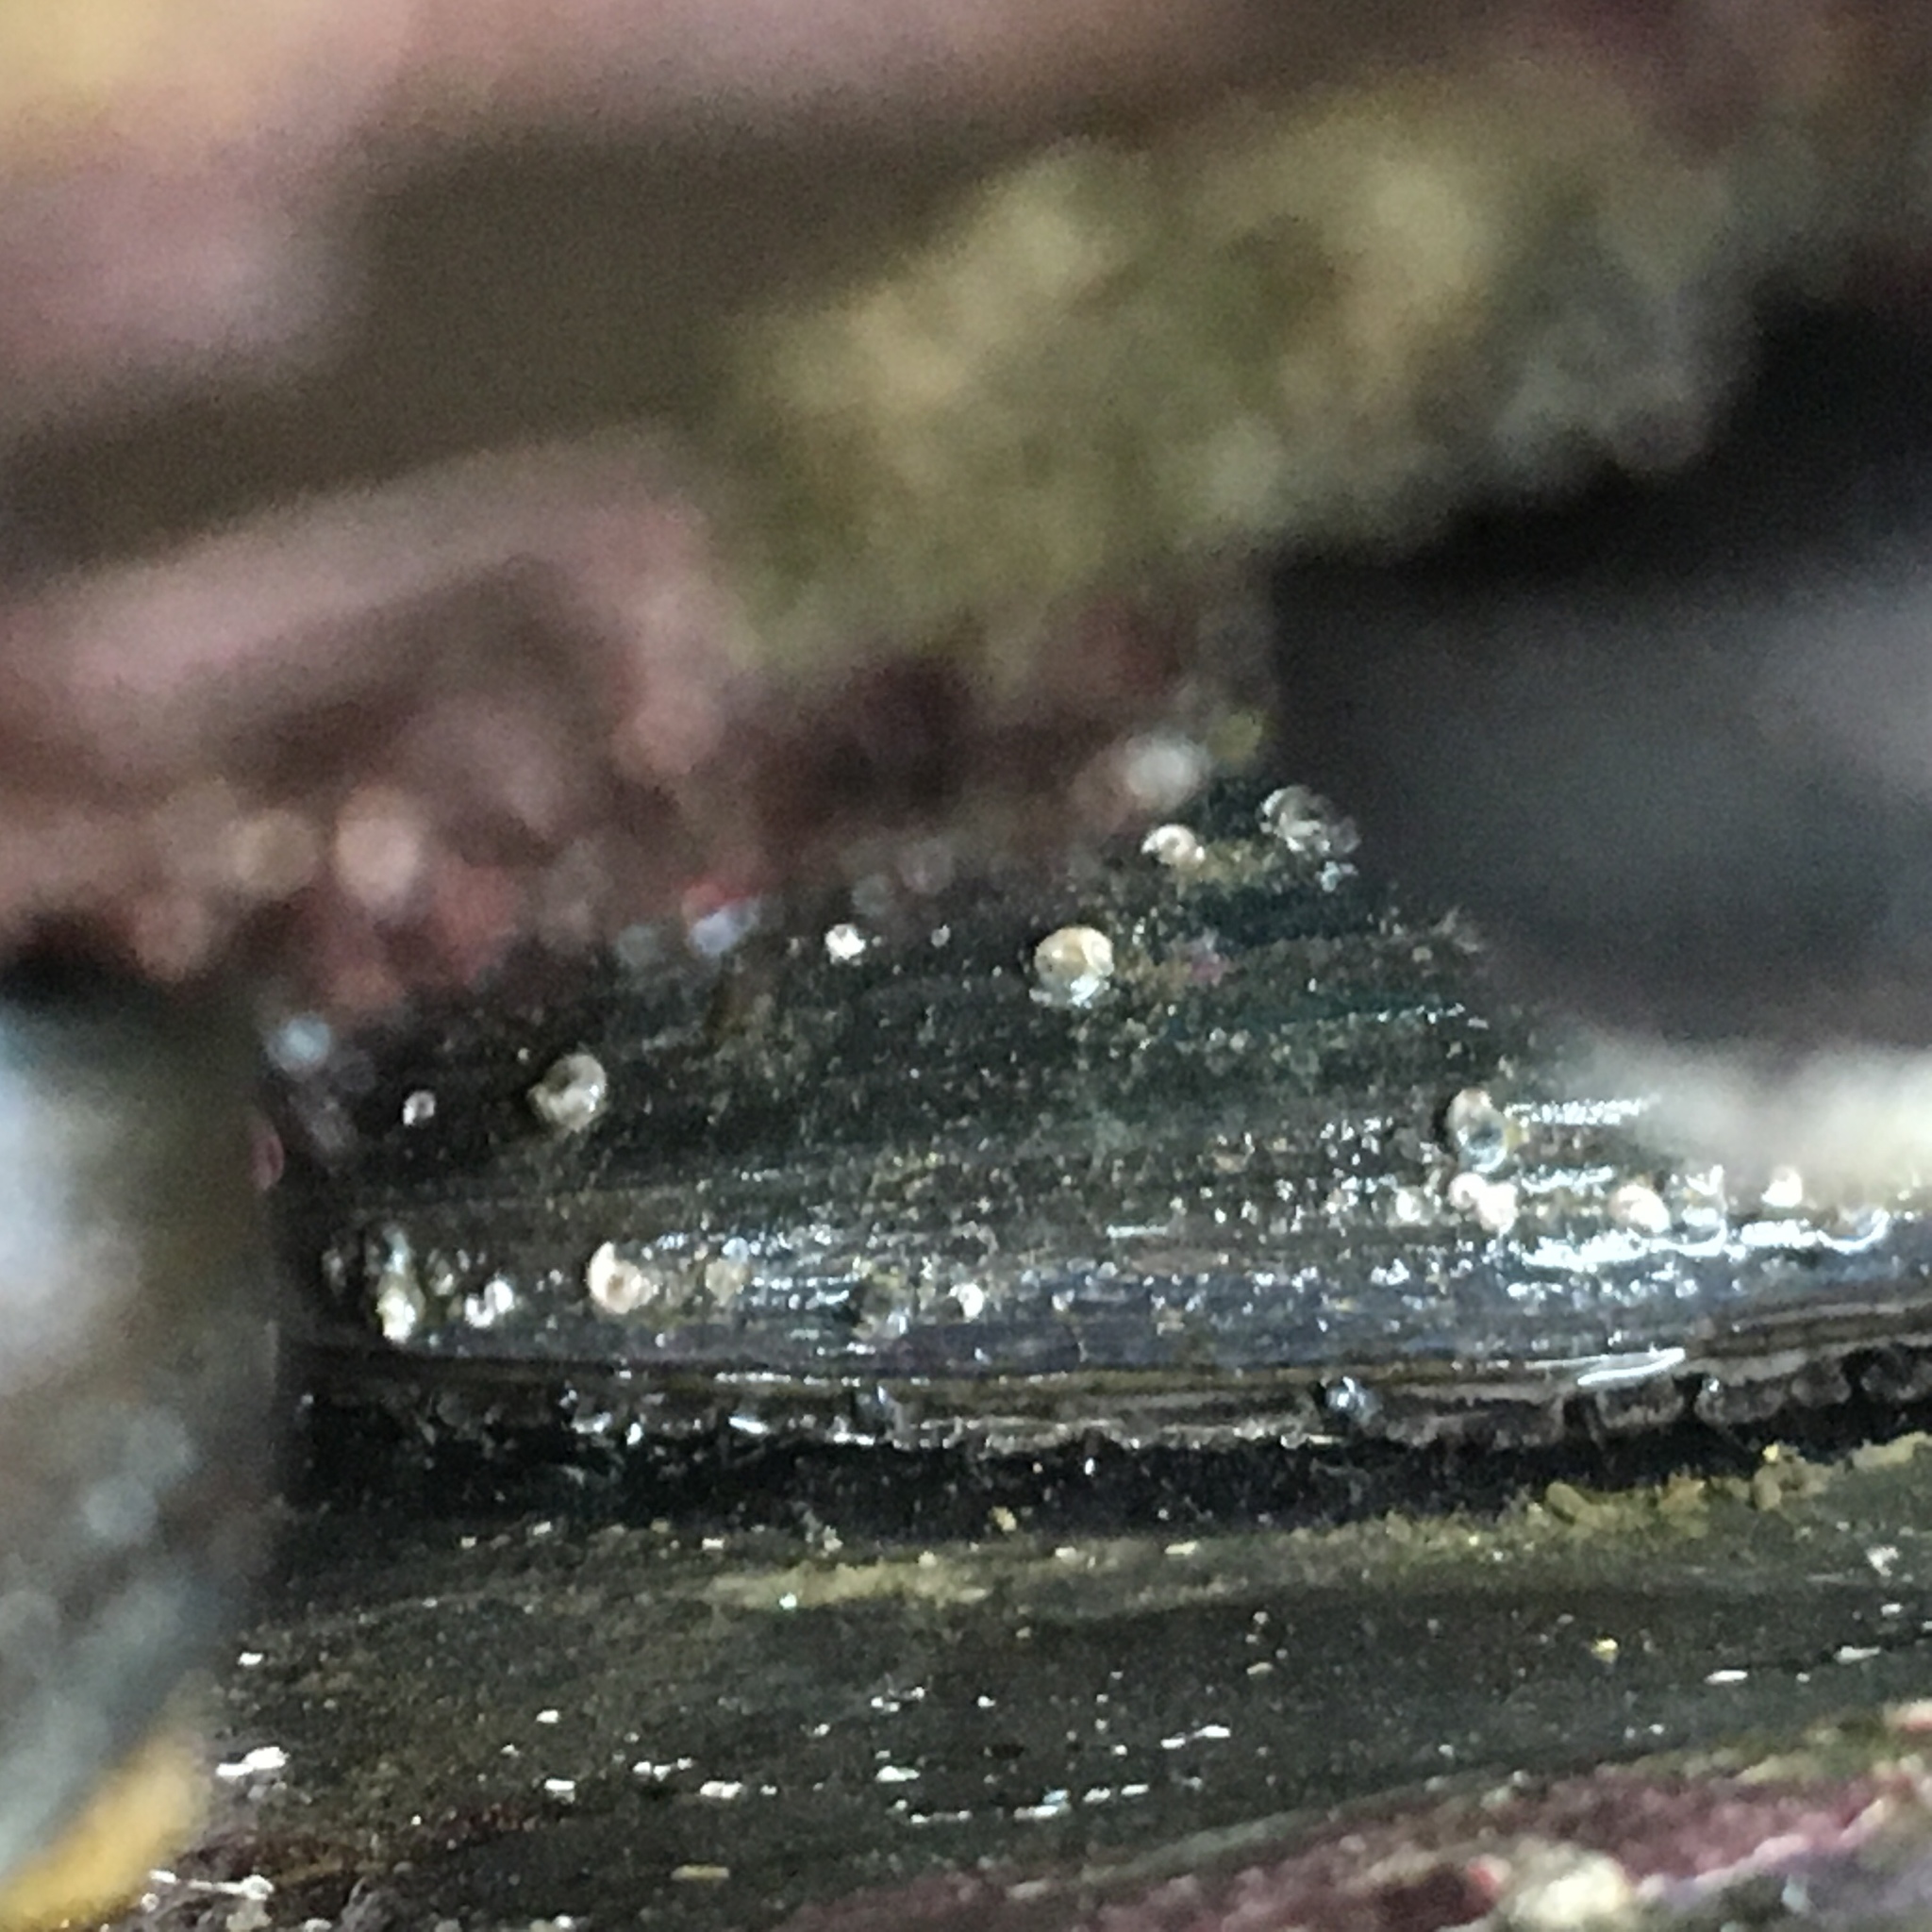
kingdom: Animalia
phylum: Mollusca
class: Gastropoda
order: Lepetellida
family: Haliotidae
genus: Haliotis
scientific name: Haliotis cracherodii
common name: Black abalone
